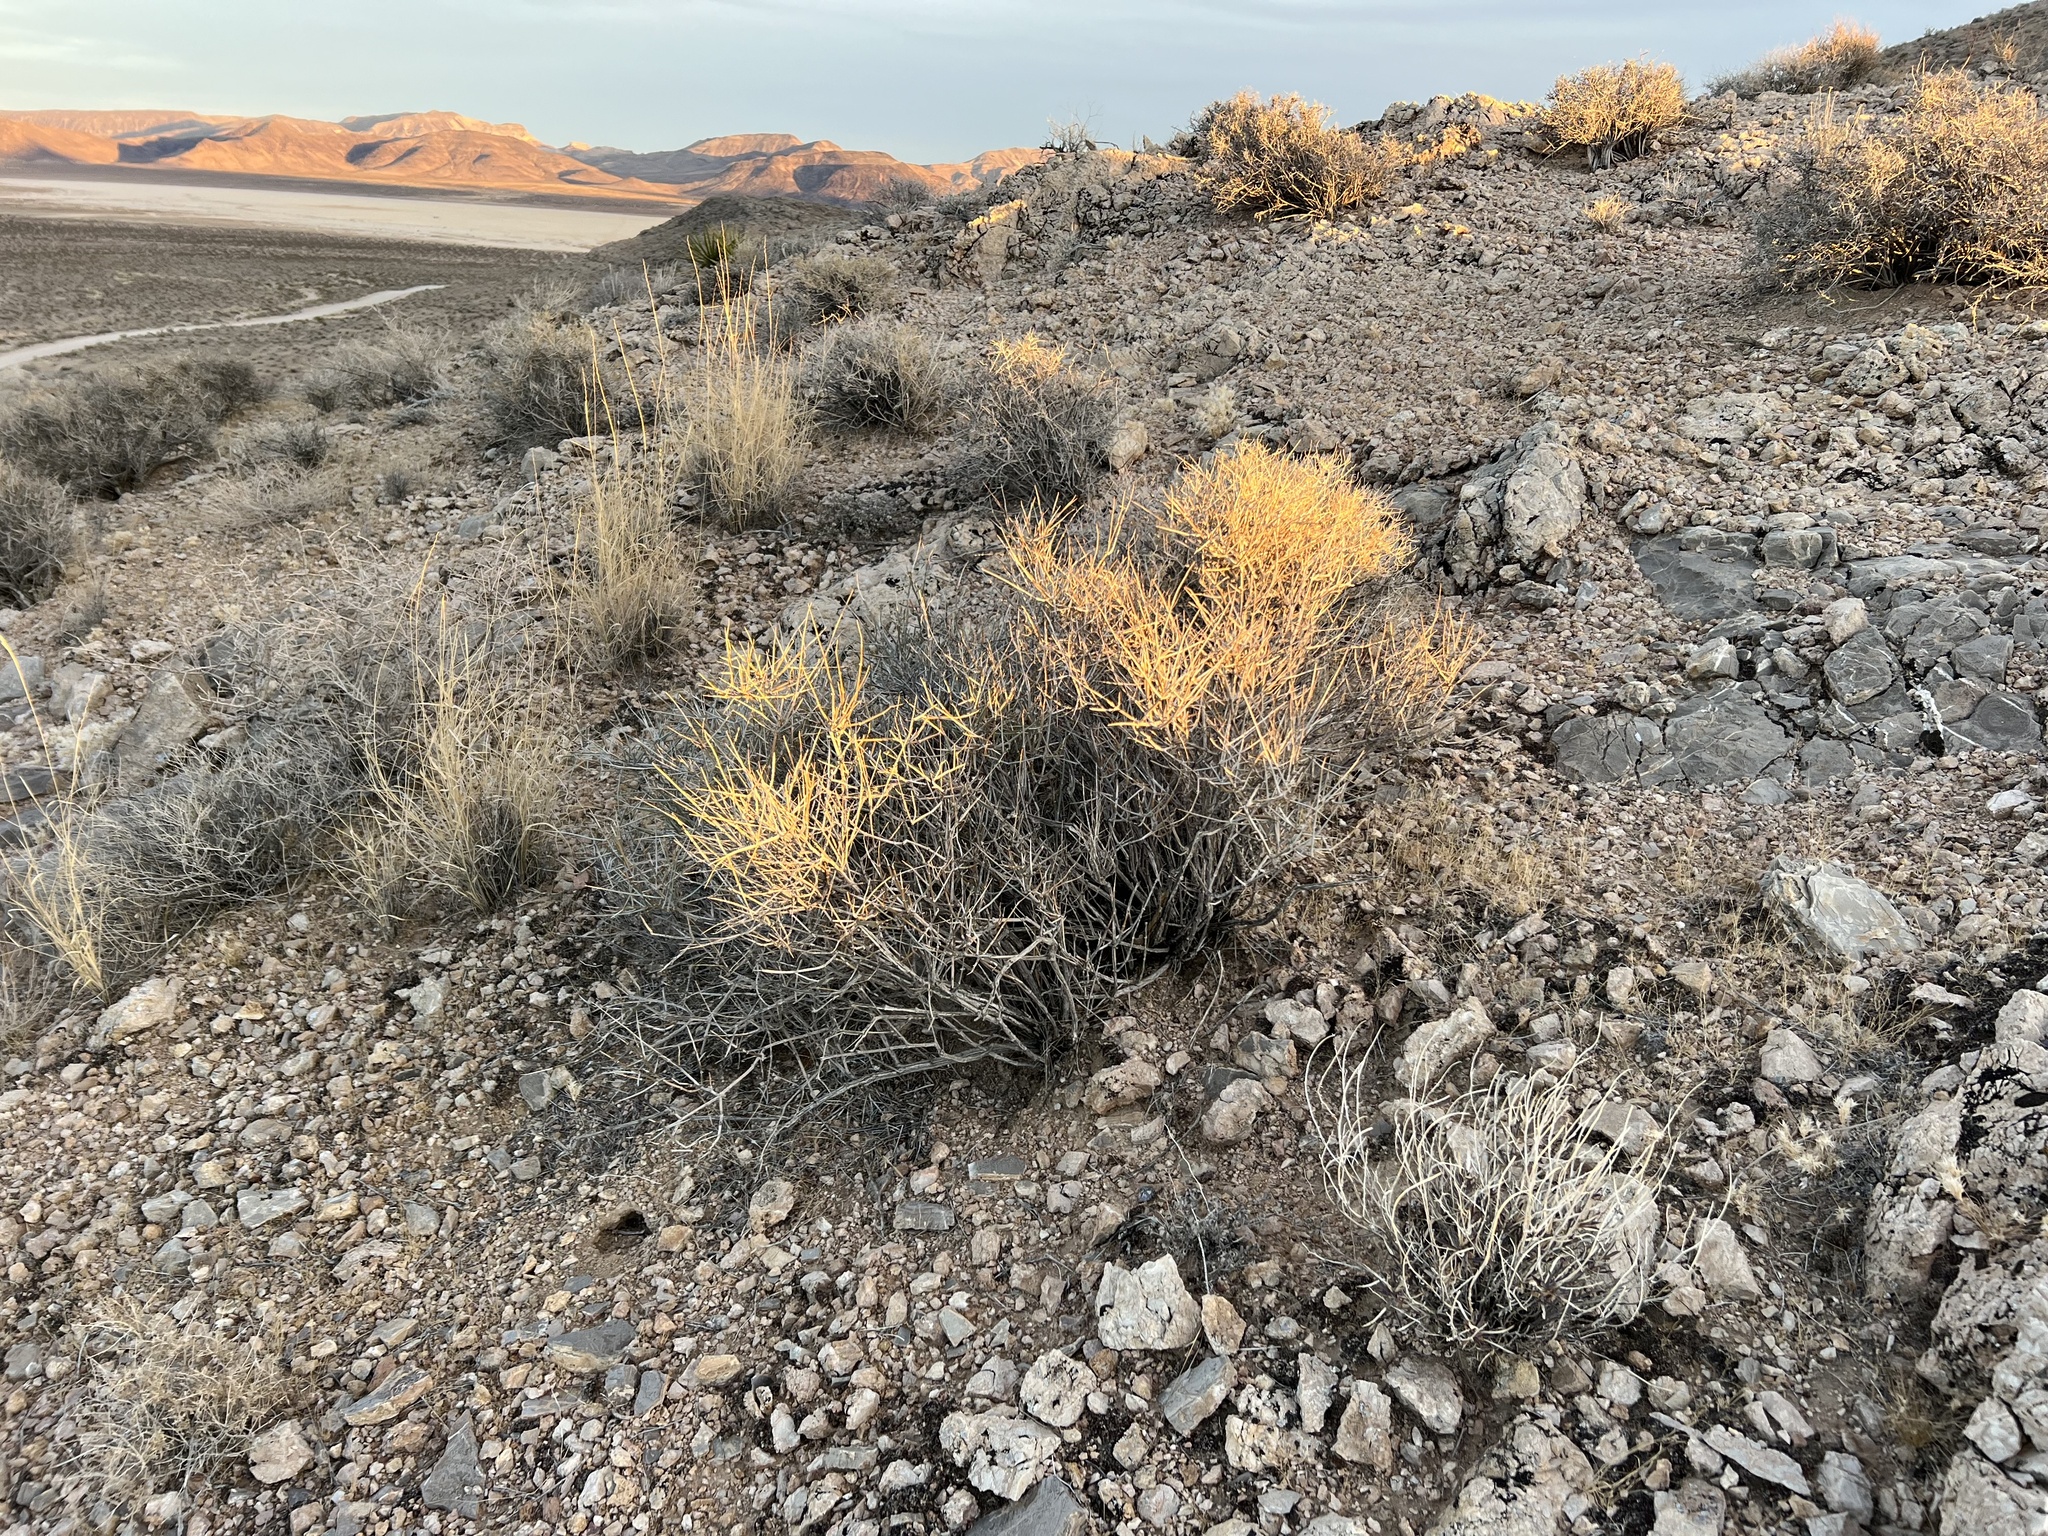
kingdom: Plantae
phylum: Tracheophyta
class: Gnetopsida
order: Ephedrales
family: Ephedraceae
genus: Ephedra
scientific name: Ephedra nevadensis
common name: Gray ephedra
